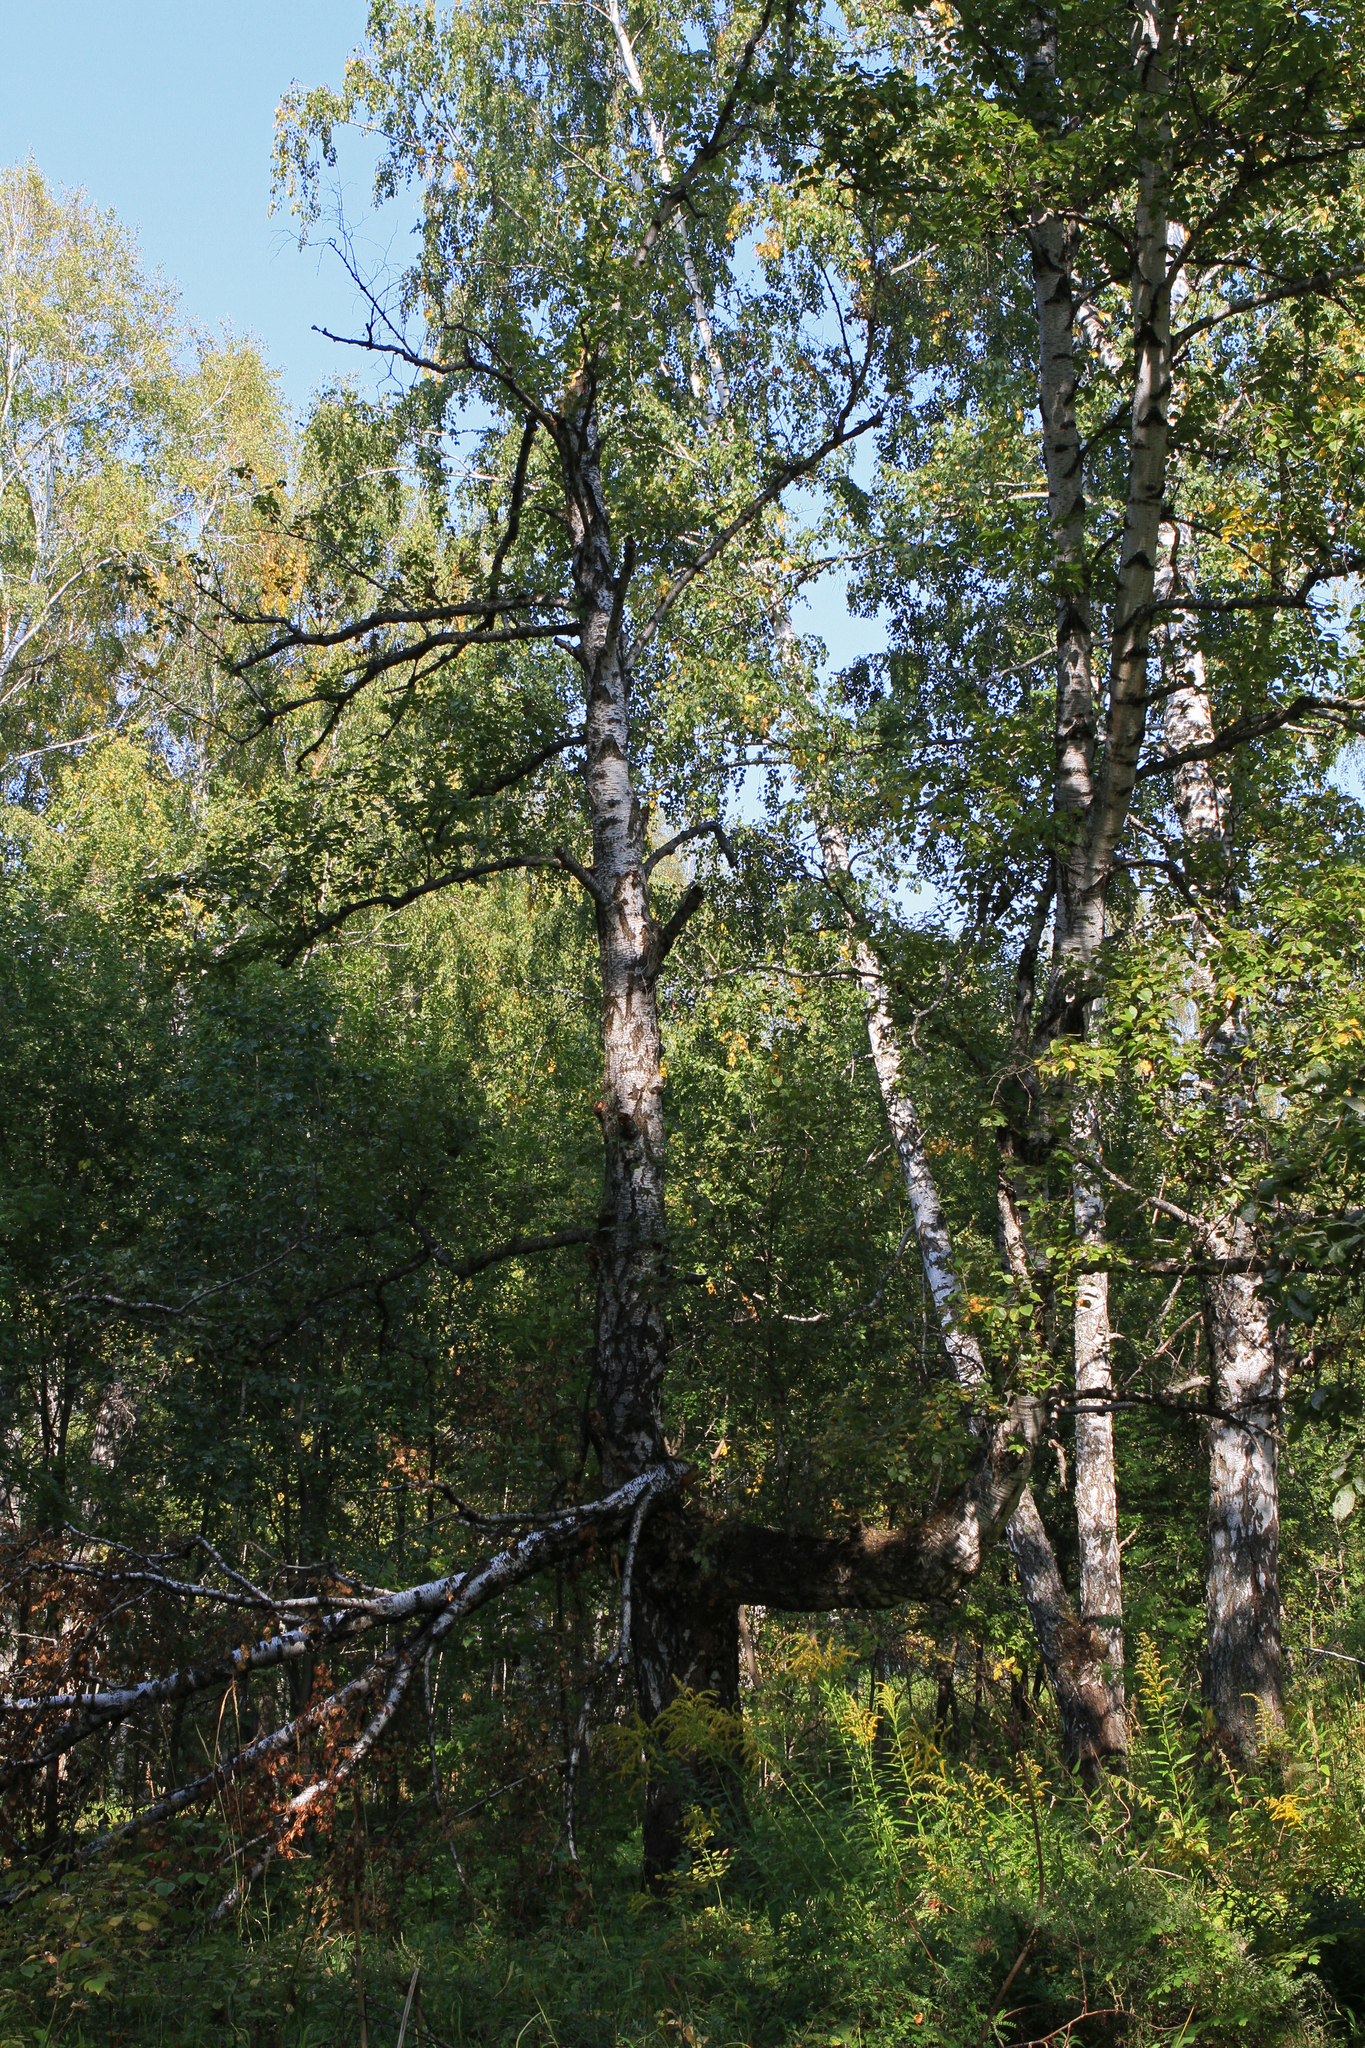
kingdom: Plantae
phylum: Tracheophyta
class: Magnoliopsida
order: Fagales
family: Betulaceae
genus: Betula
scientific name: Betula pendula
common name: Silver birch
